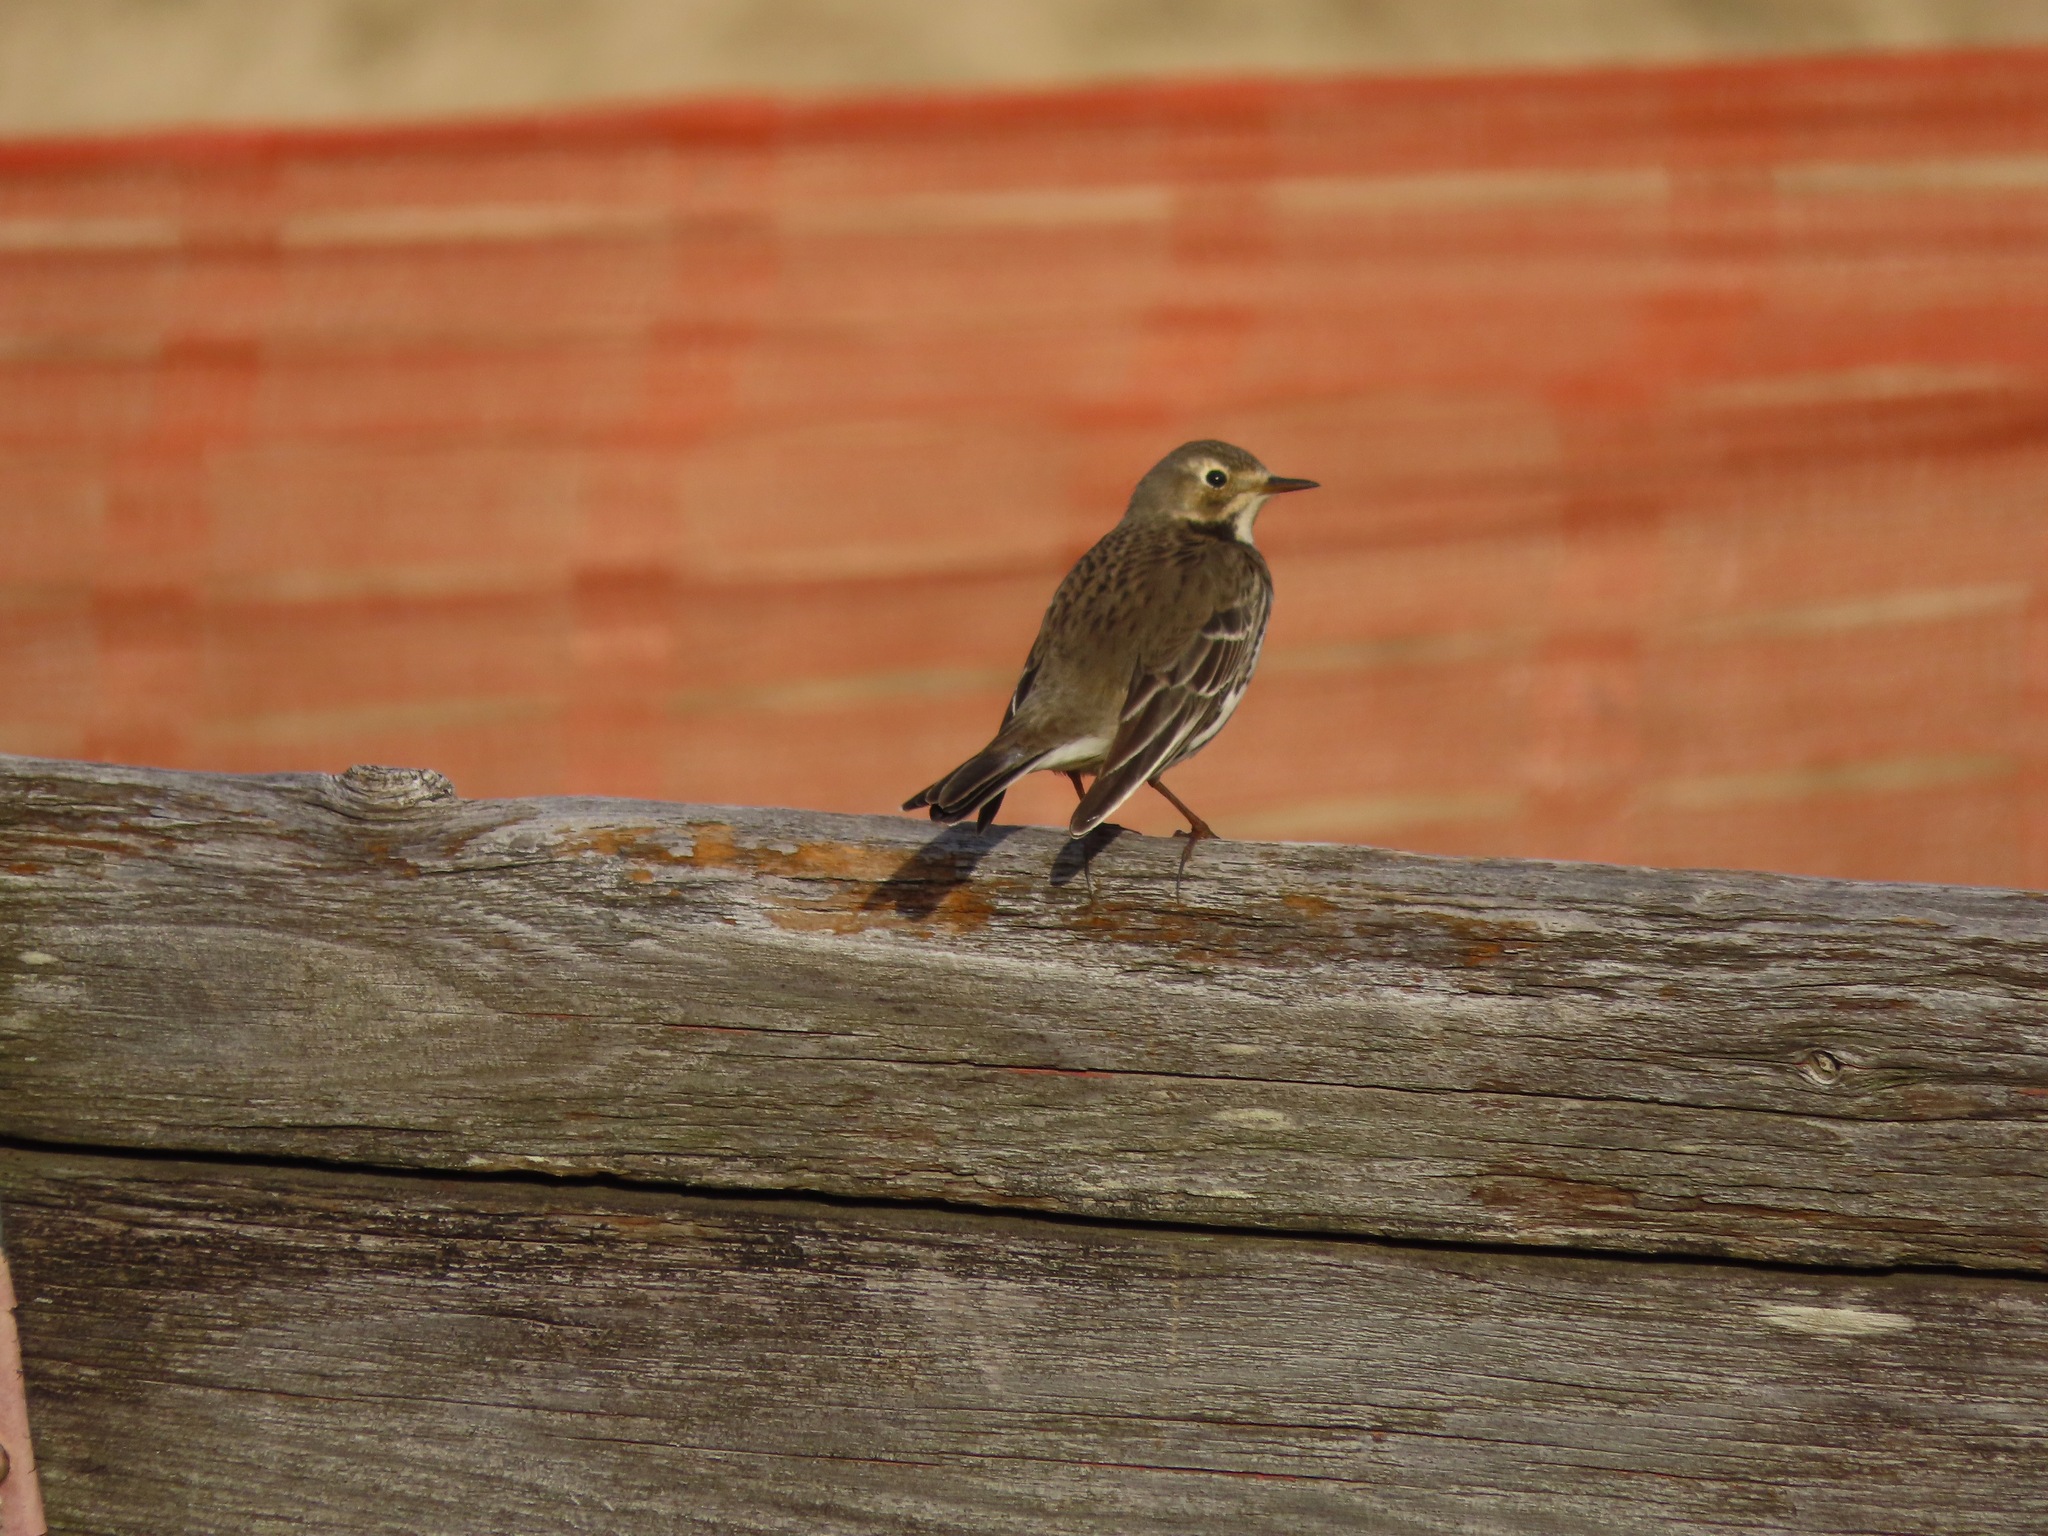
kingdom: Animalia
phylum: Chordata
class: Aves
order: Passeriformes
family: Motacillidae
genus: Anthus
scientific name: Anthus rubescens
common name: Buff-bellied pipit
